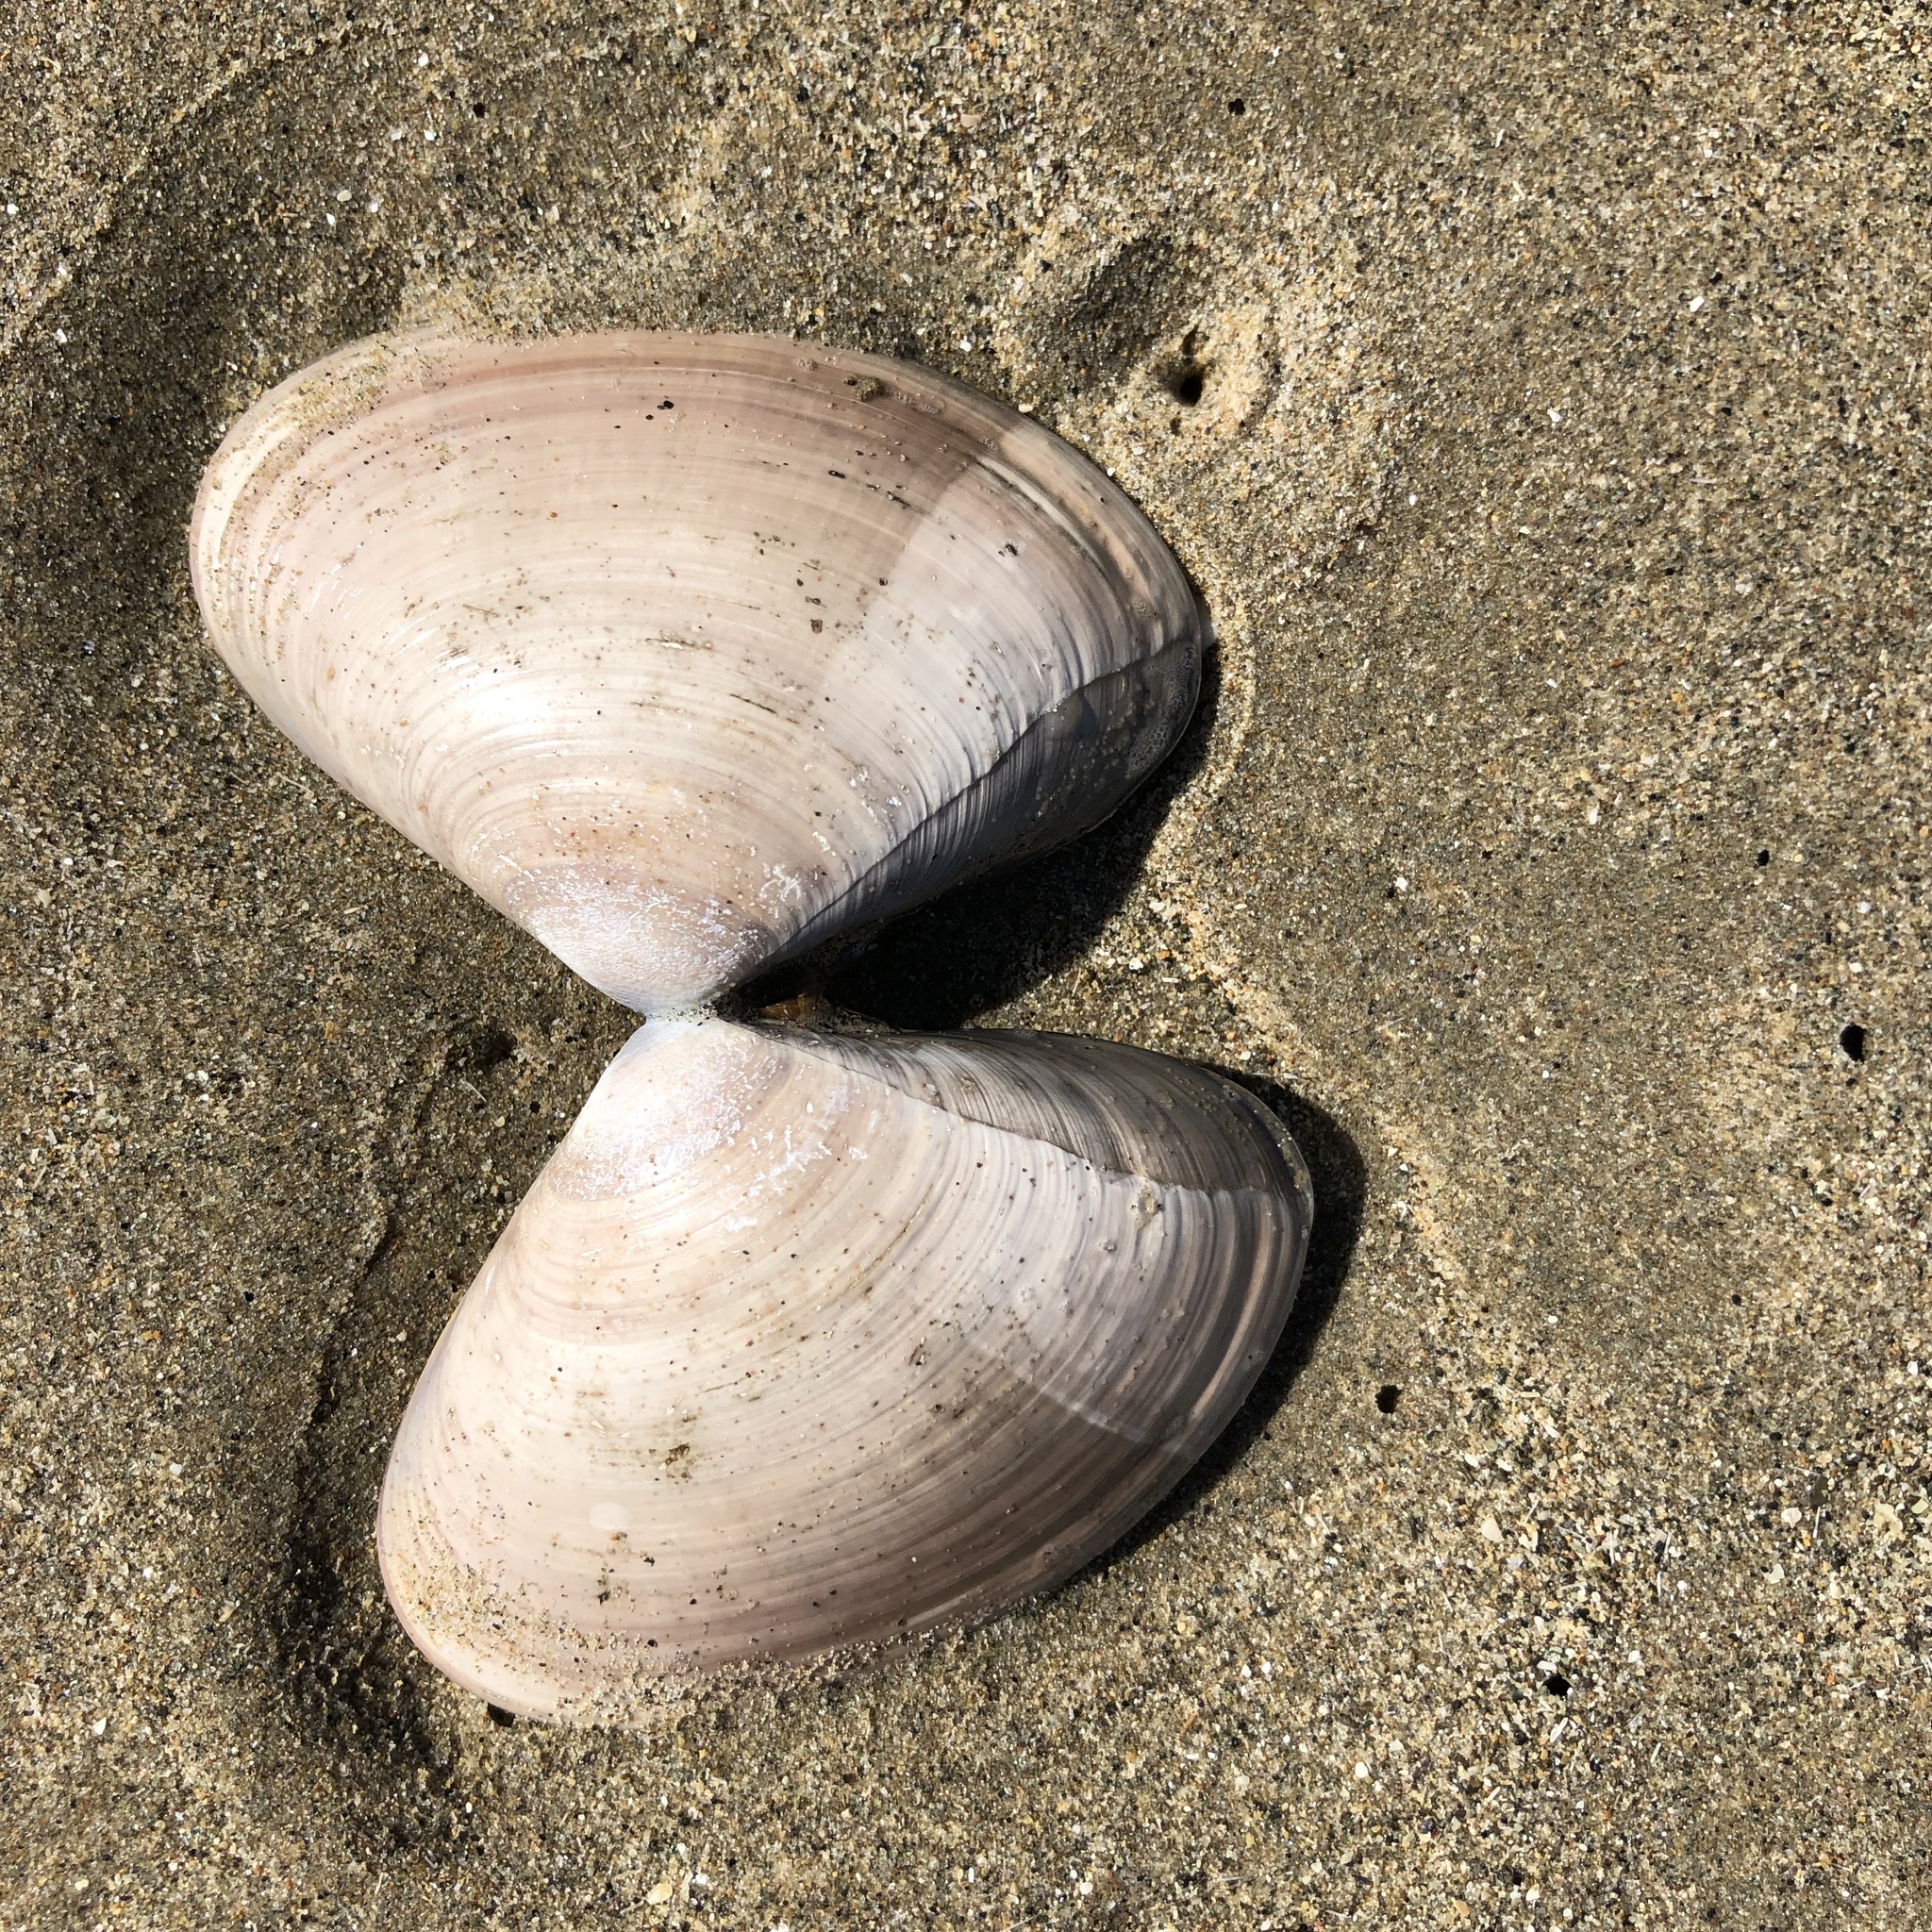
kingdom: Animalia
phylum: Mollusca
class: Bivalvia
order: Venerida
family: Veneridae
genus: Tivela
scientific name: Tivela stultorum
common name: Pismo clam
